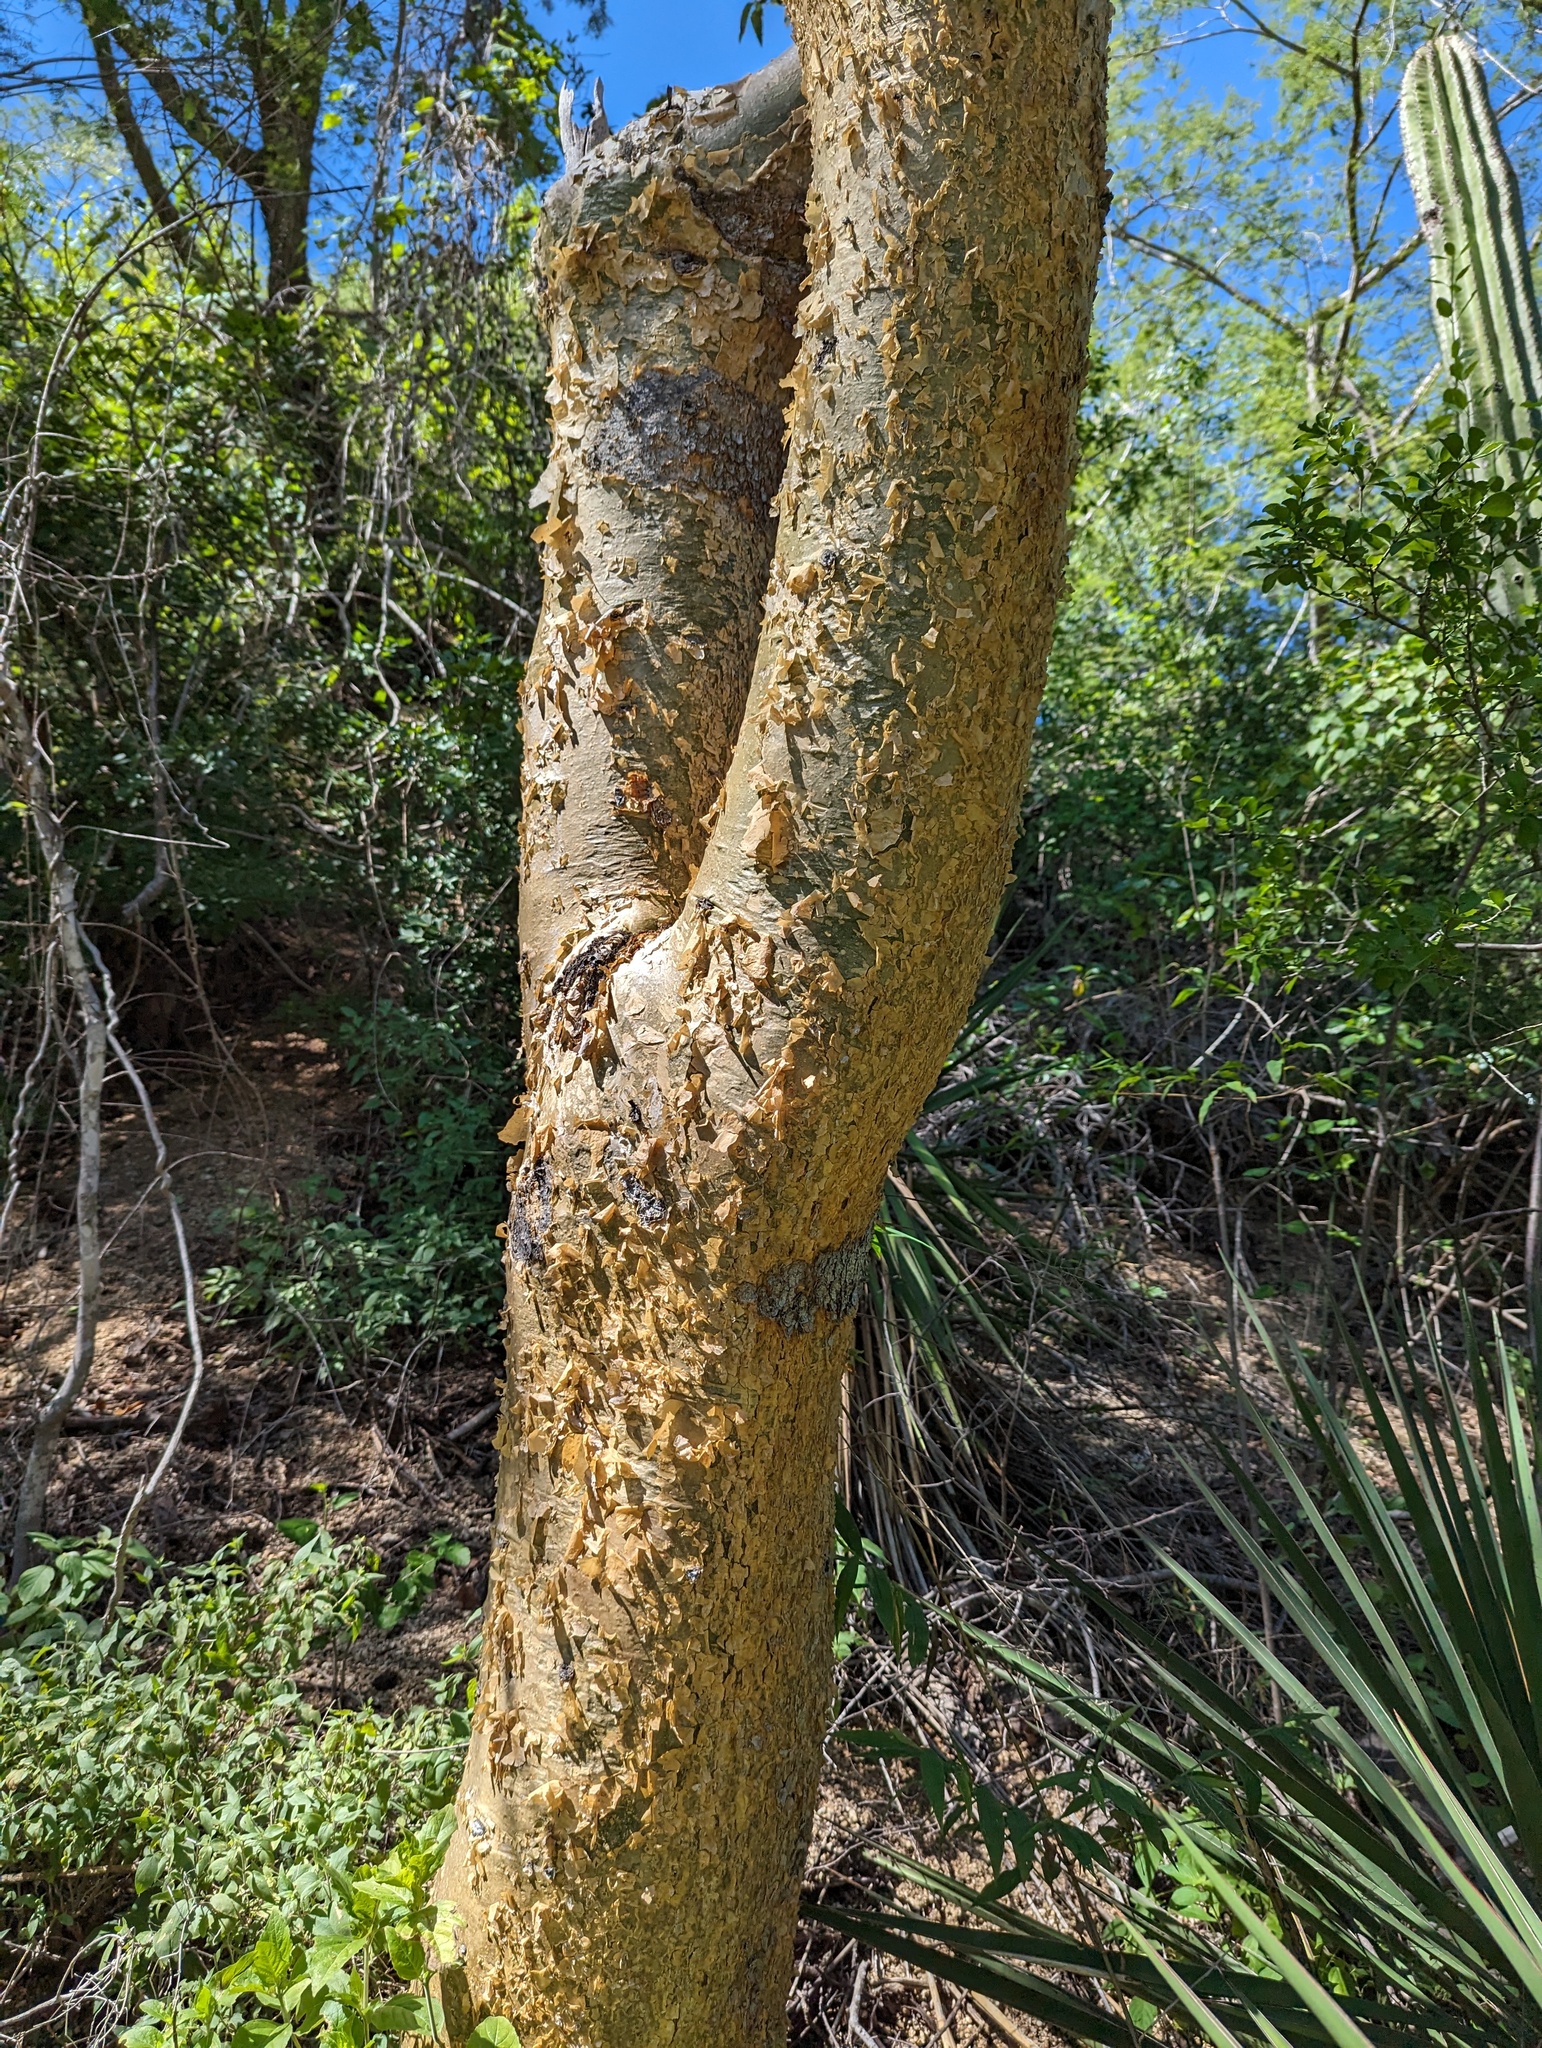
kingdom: Plantae
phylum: Tracheophyta
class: Magnoliopsida
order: Sapindales
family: Burseraceae
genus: Bursera
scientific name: Bursera microphylla
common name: Elephant tree
